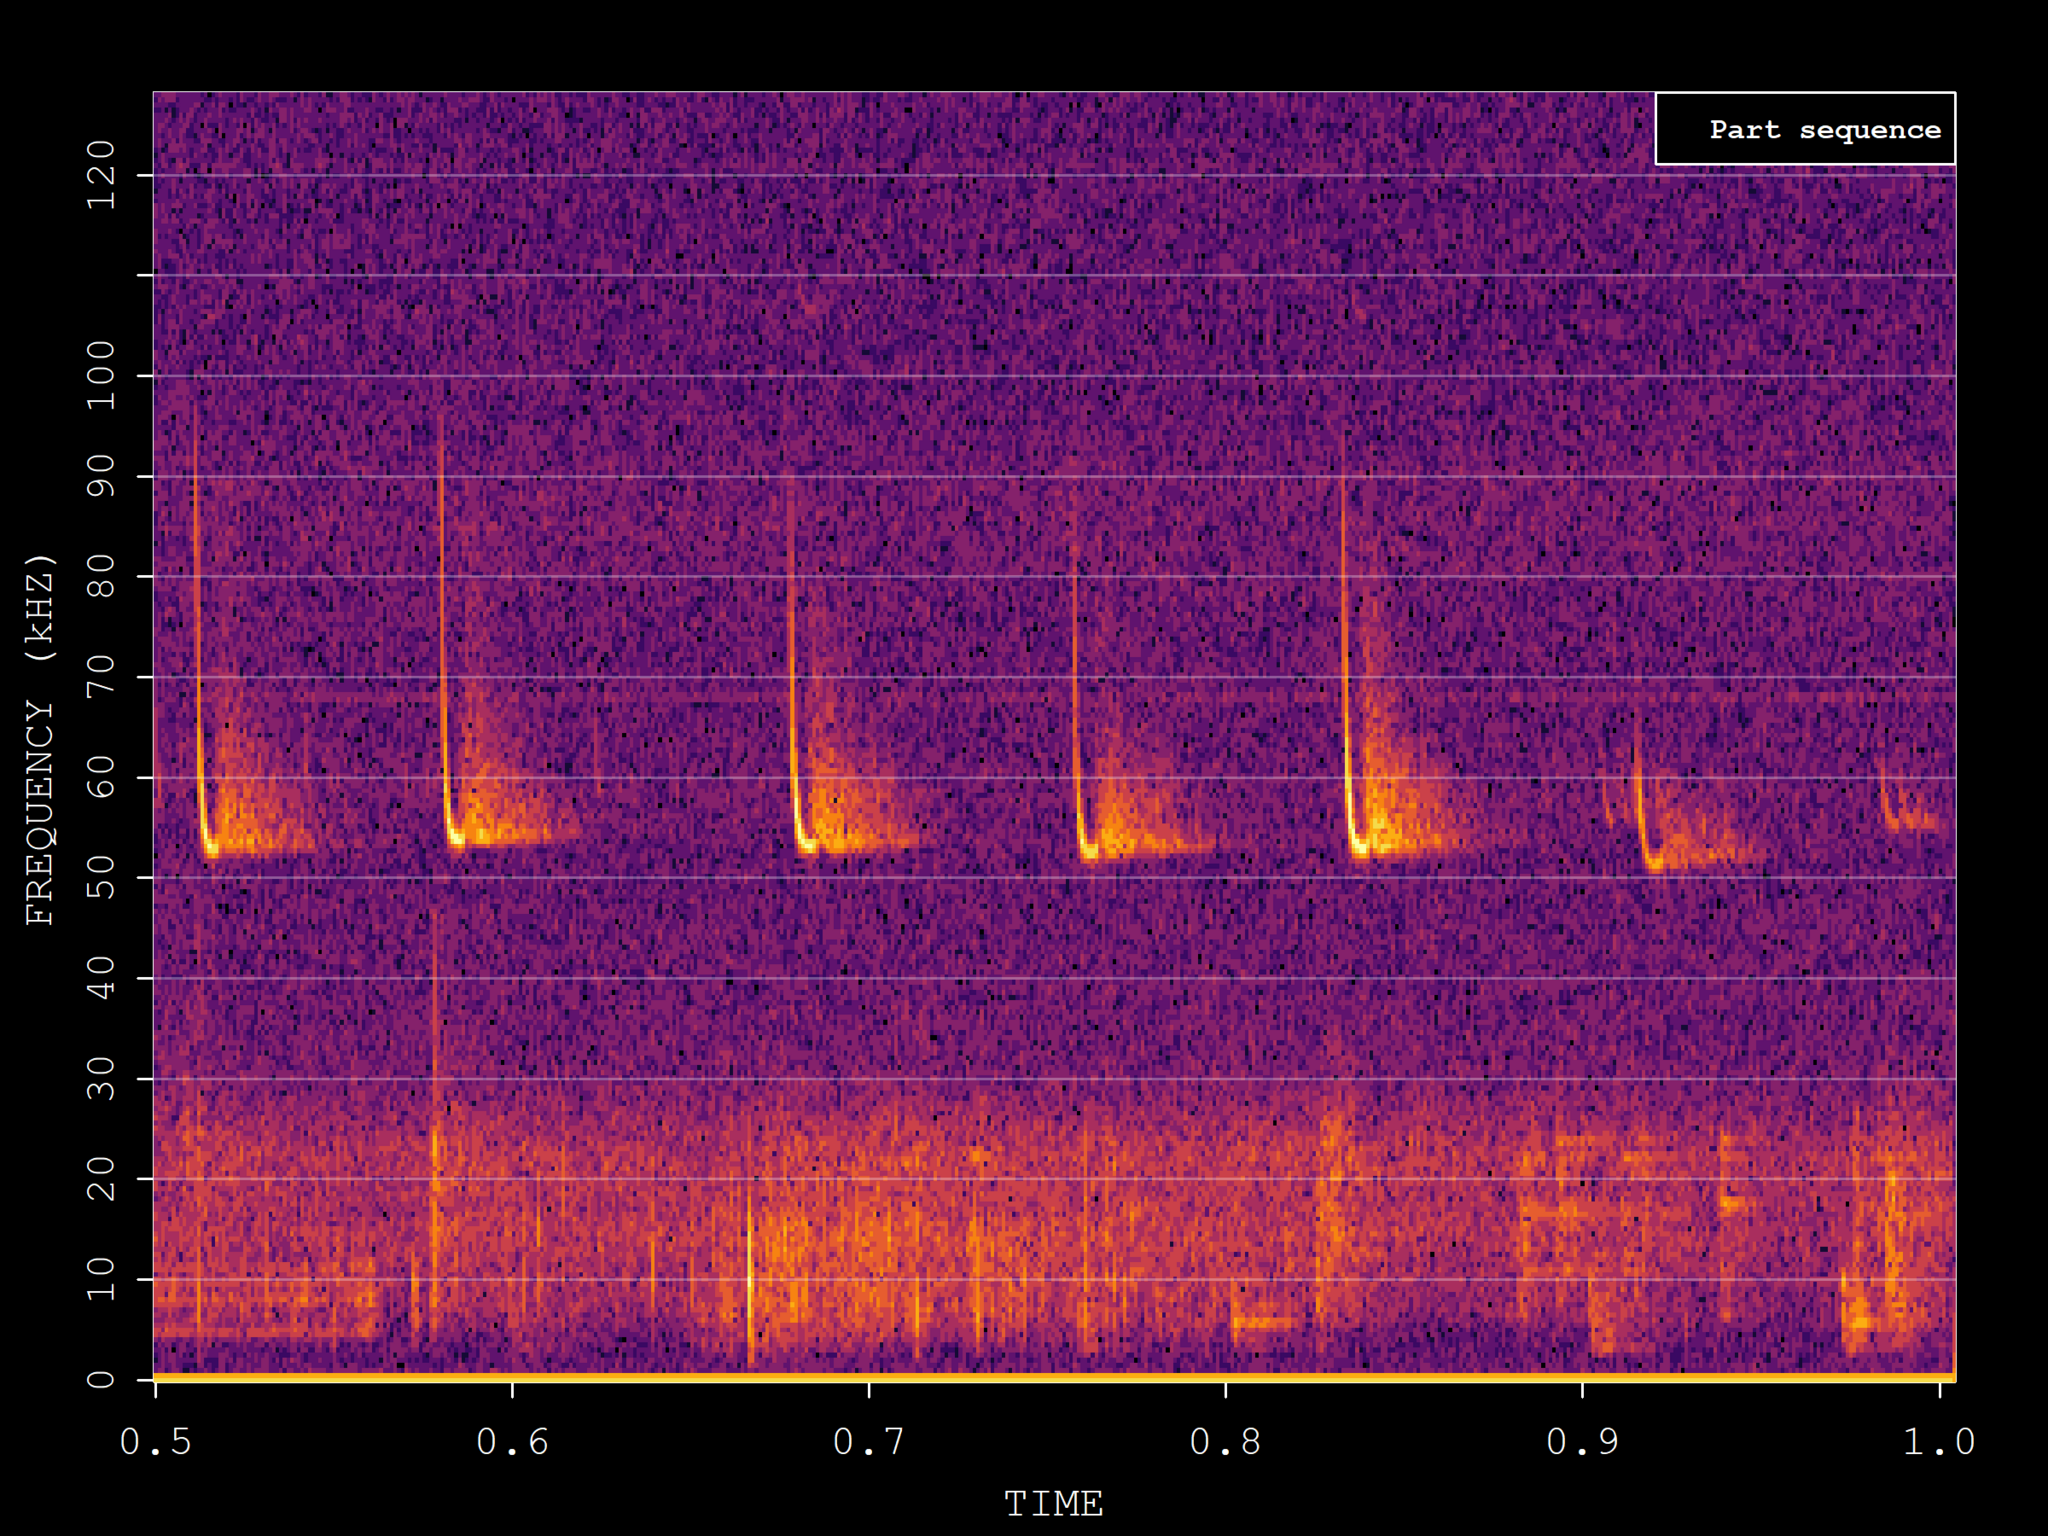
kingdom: Animalia
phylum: Chordata
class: Mammalia
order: Chiroptera
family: Vespertilionidae
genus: Pipistrellus
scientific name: Pipistrellus pygmaeus
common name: Soprano pipistrelle
